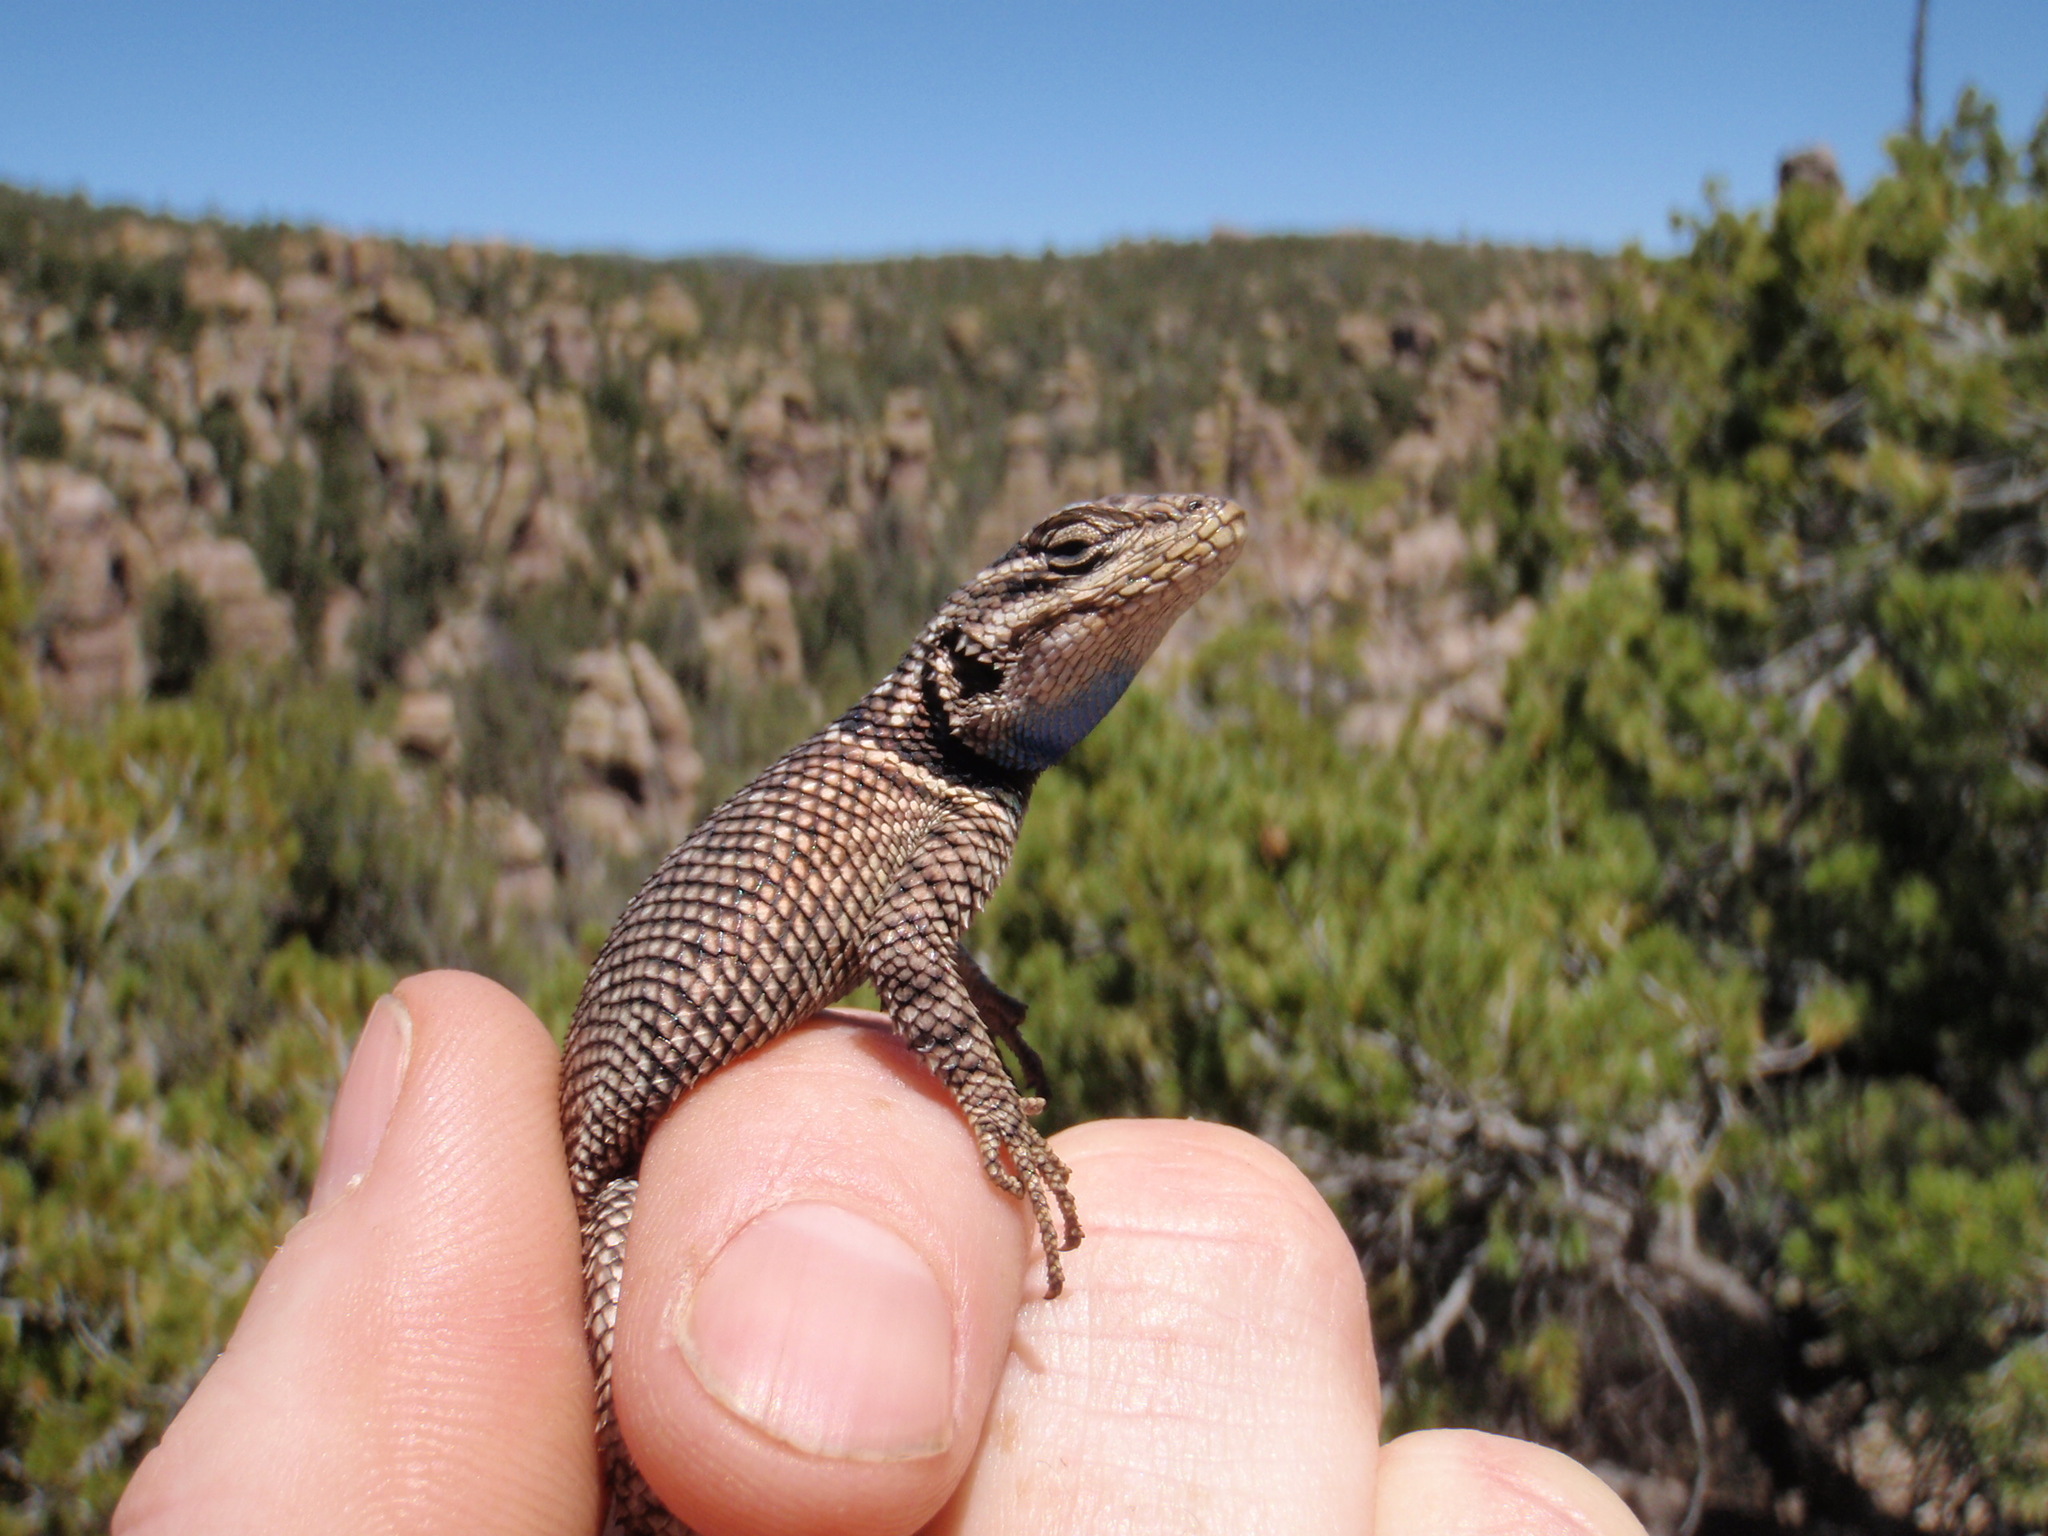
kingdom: Animalia
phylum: Chordata
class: Squamata
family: Phrynosomatidae
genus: Sceloporus
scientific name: Sceloporus jarrovii
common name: Yarrow's spiny lizard
